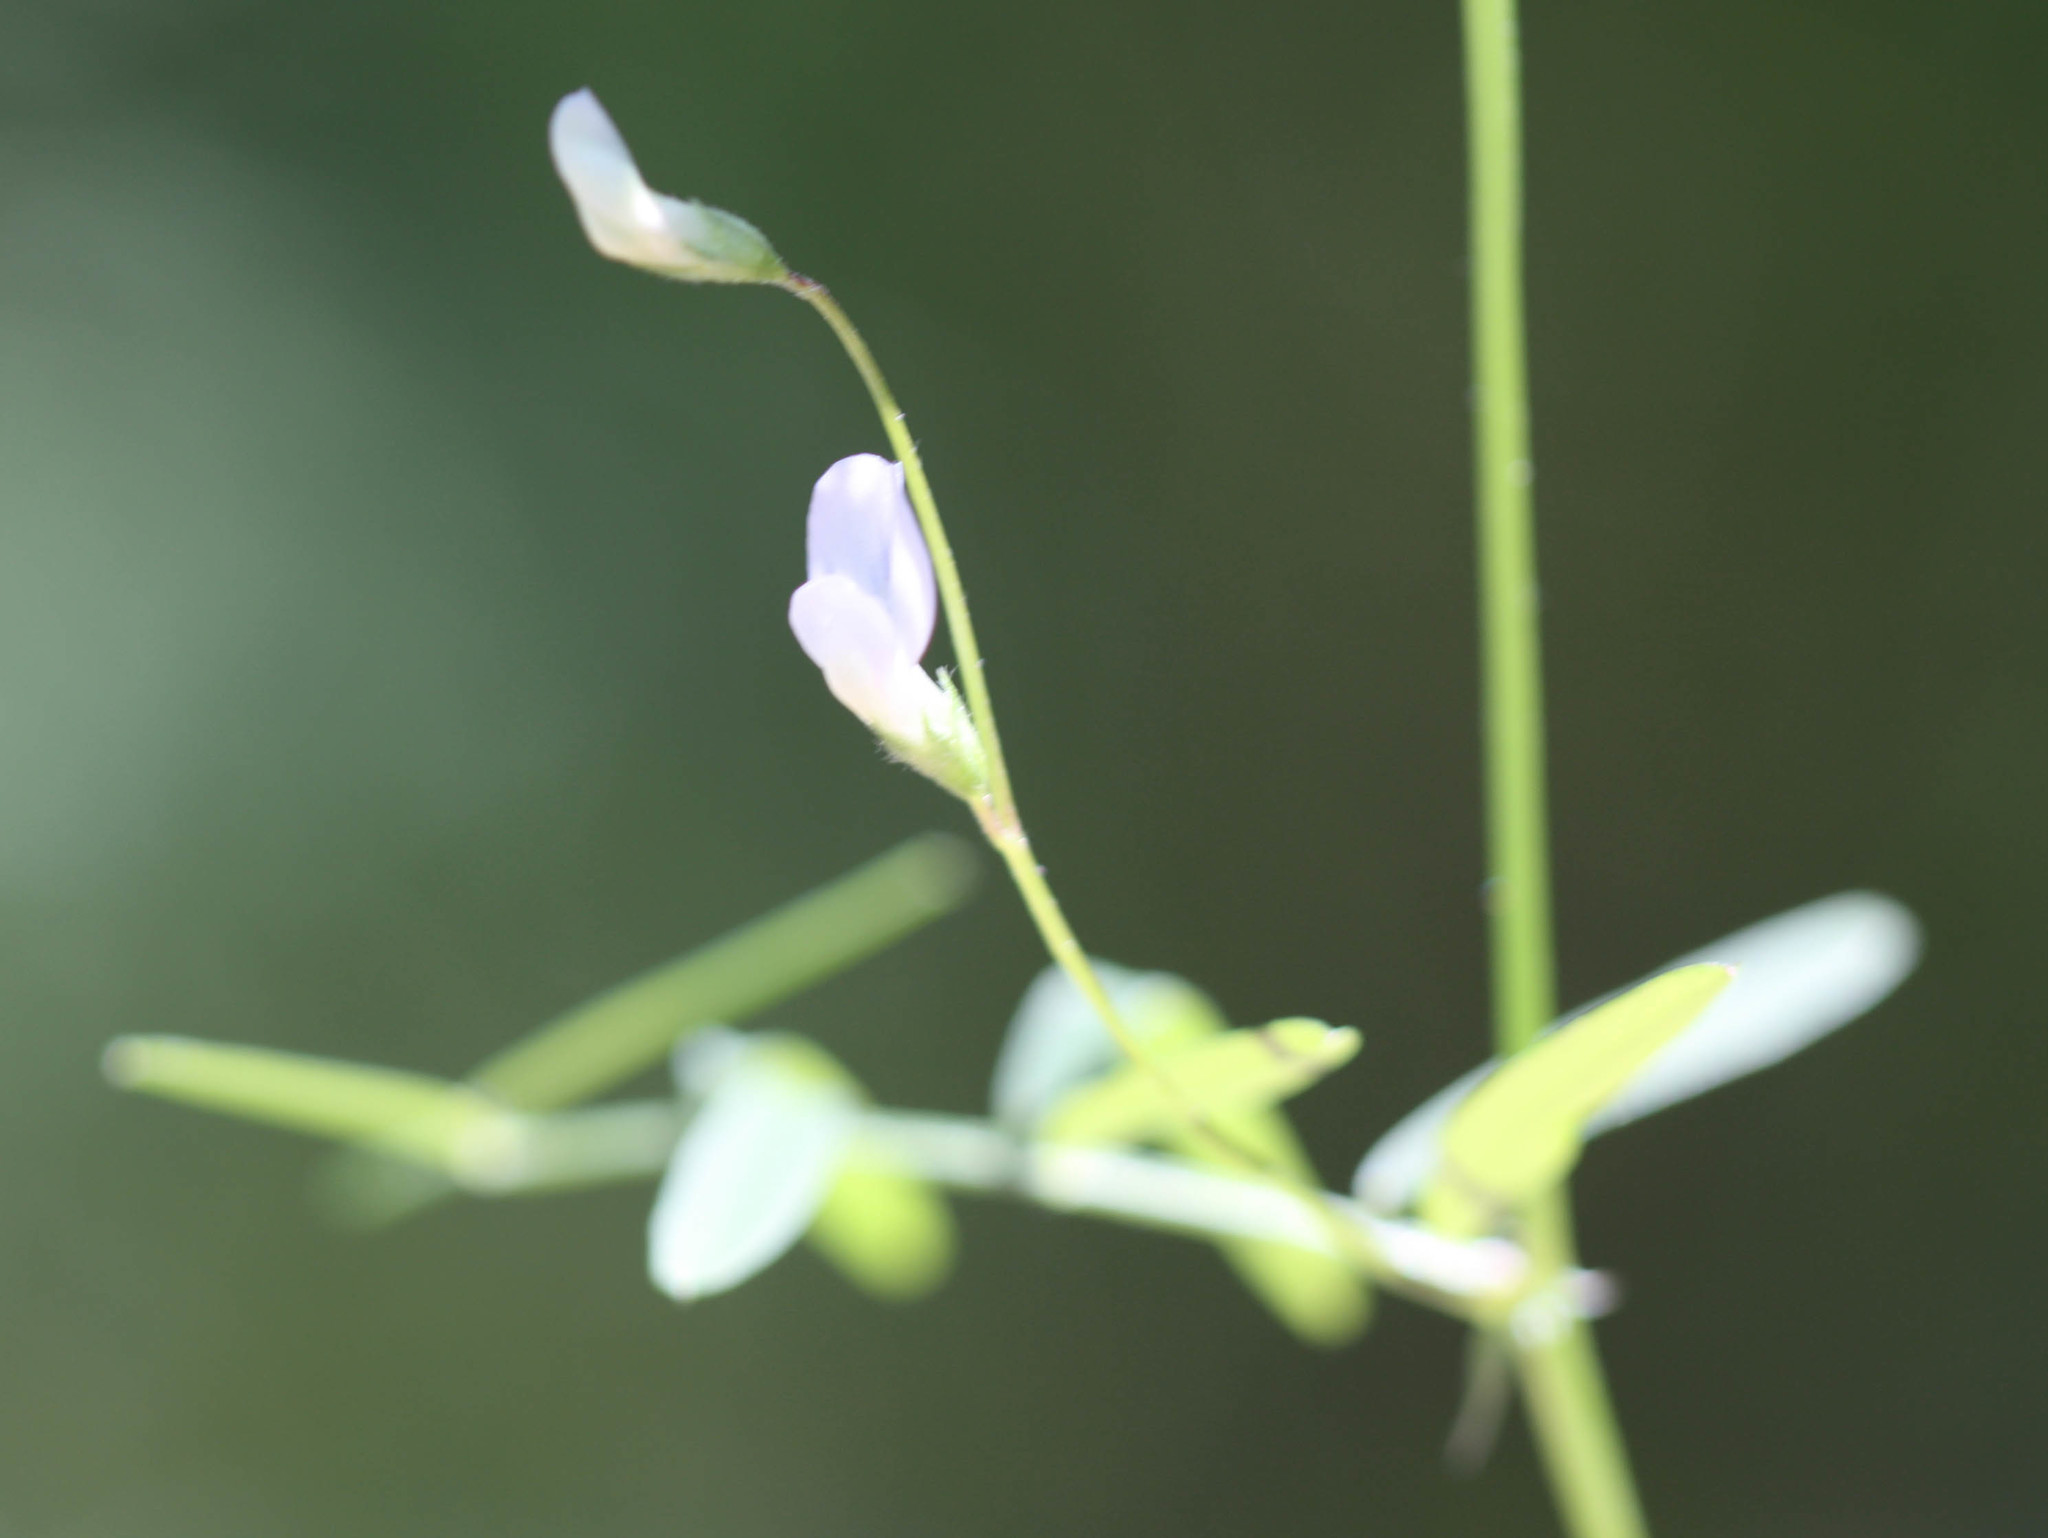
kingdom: Plantae
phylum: Tracheophyta
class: Magnoliopsida
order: Fabales
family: Fabaceae
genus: Vicia
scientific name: Vicia tetrasperma
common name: Smooth tare
